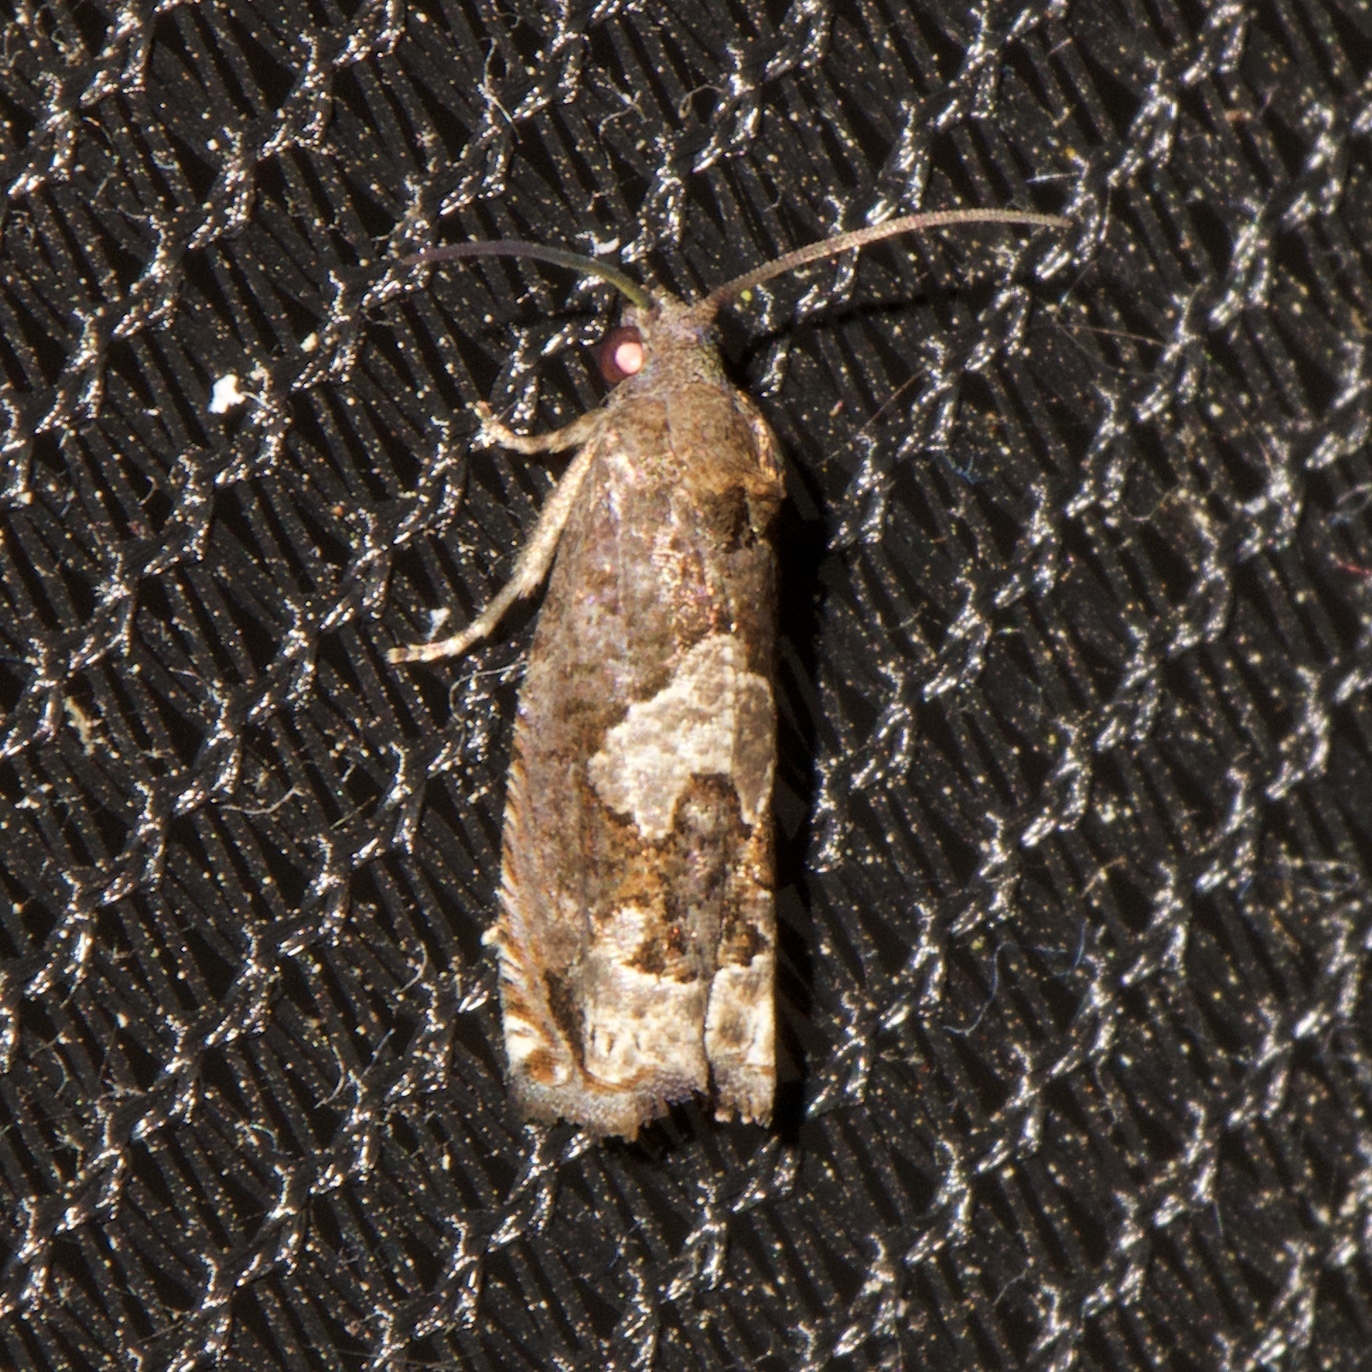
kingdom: Animalia
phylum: Arthropoda
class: Insecta
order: Lepidoptera
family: Tortricidae
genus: Epiblema
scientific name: Epiblema otiosana
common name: Bidens borer moth
